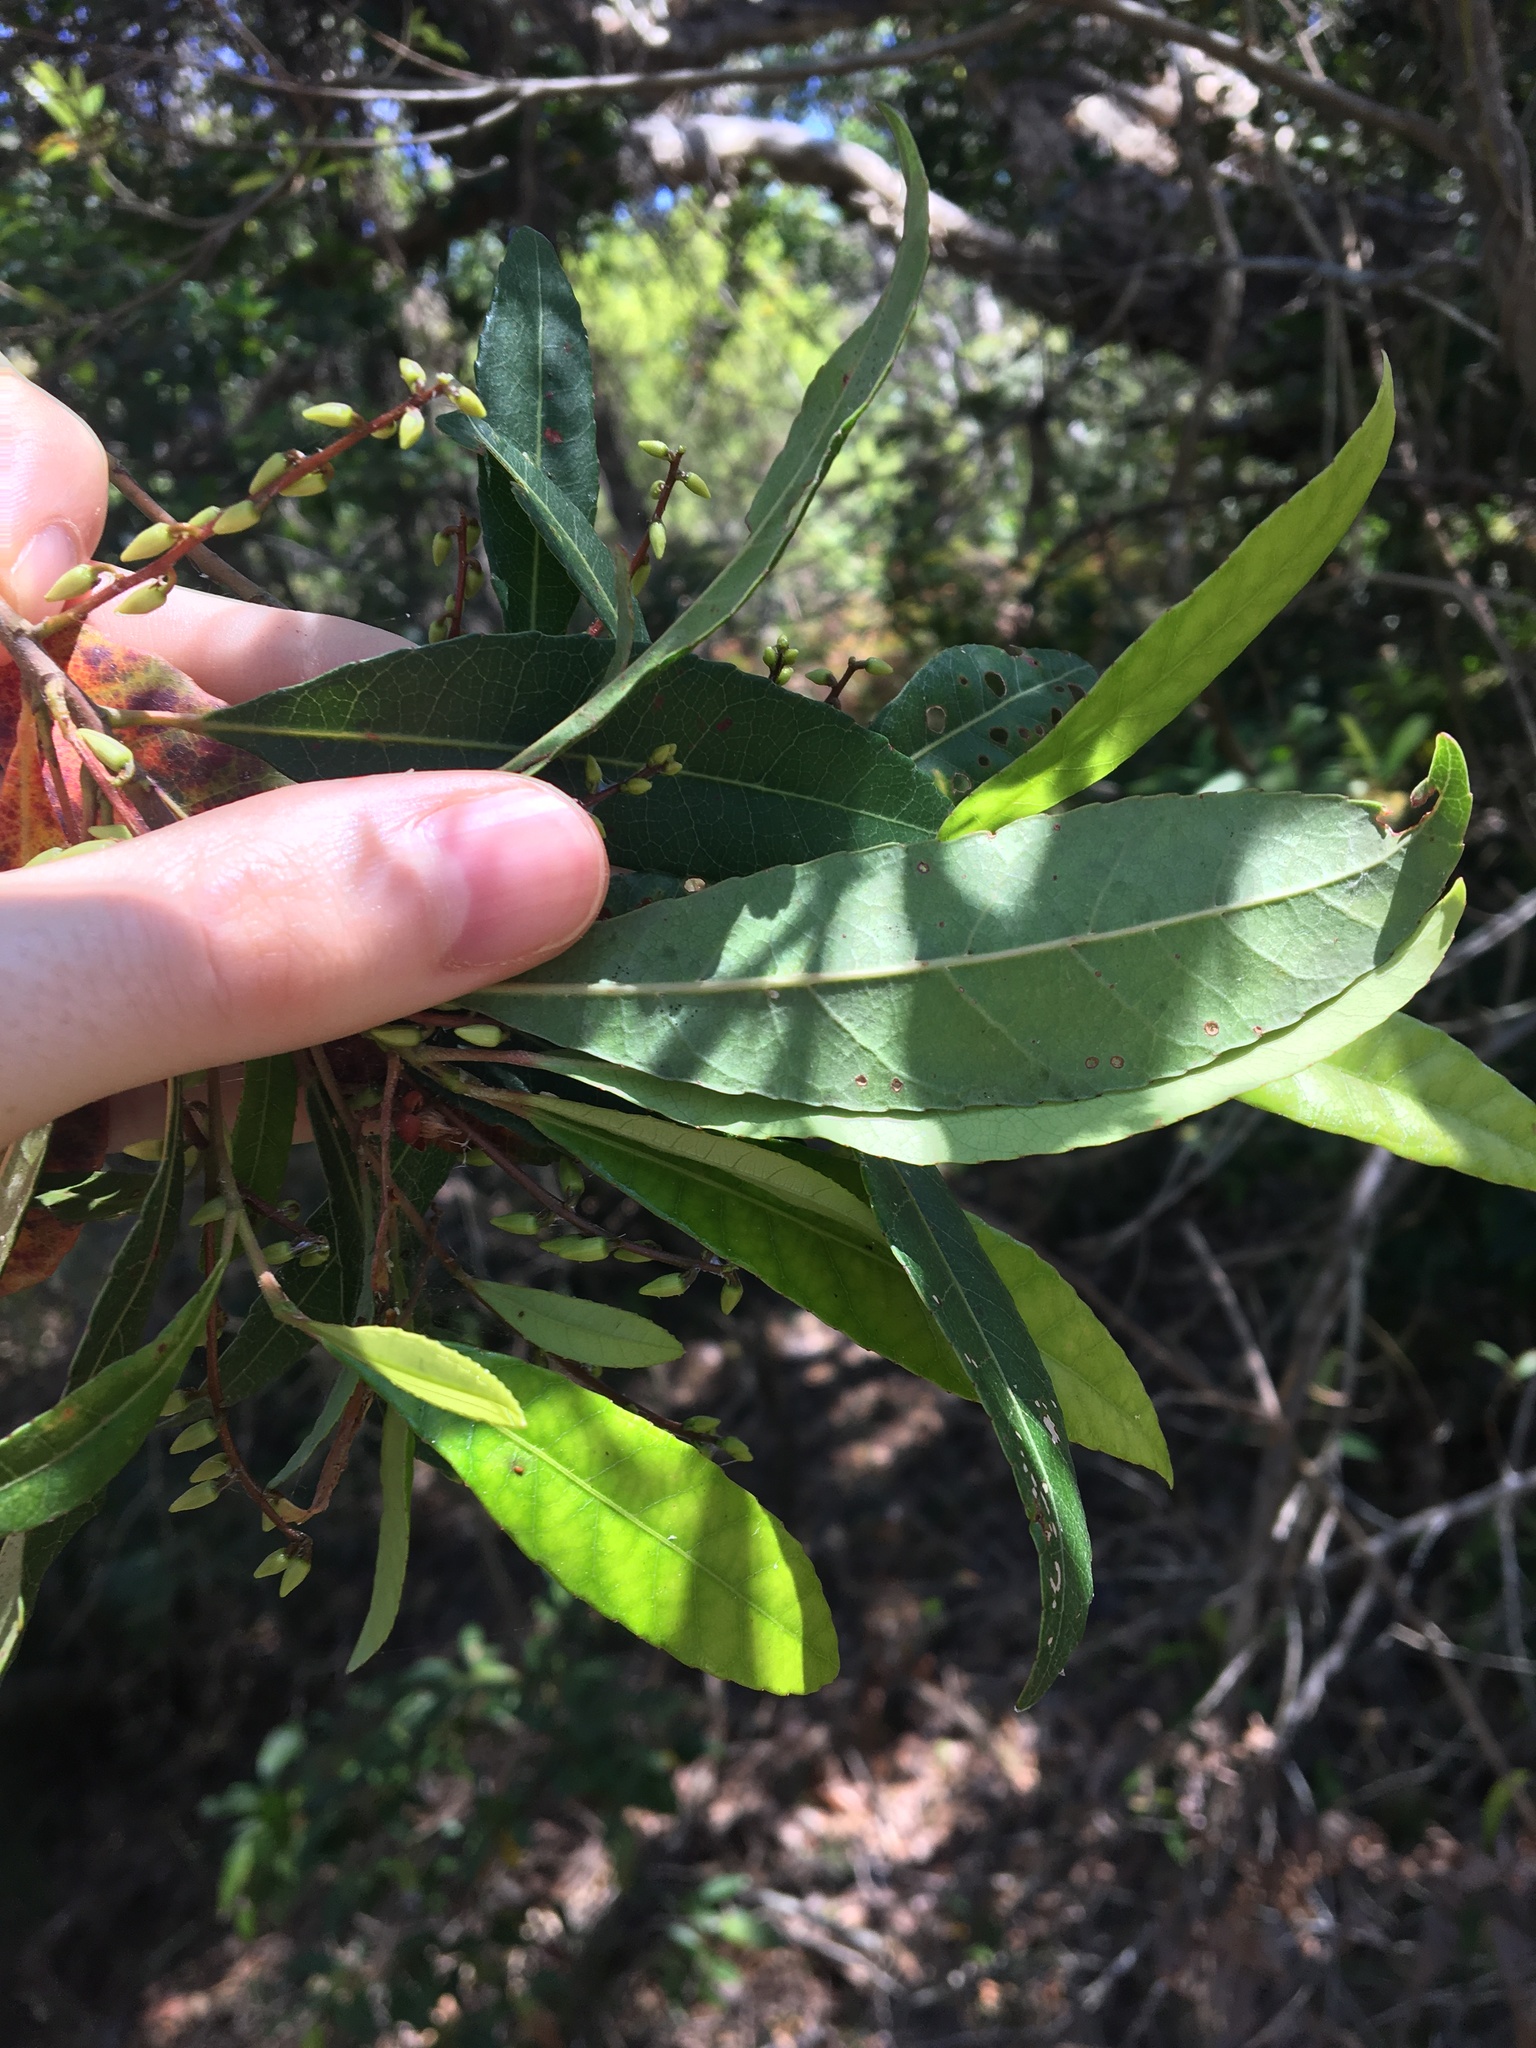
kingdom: Plantae
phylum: Tracheophyta
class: Magnoliopsida
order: Oxalidales
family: Elaeocarpaceae
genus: Elaeocarpus
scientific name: Elaeocarpus reticulatus
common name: Ash quandong
